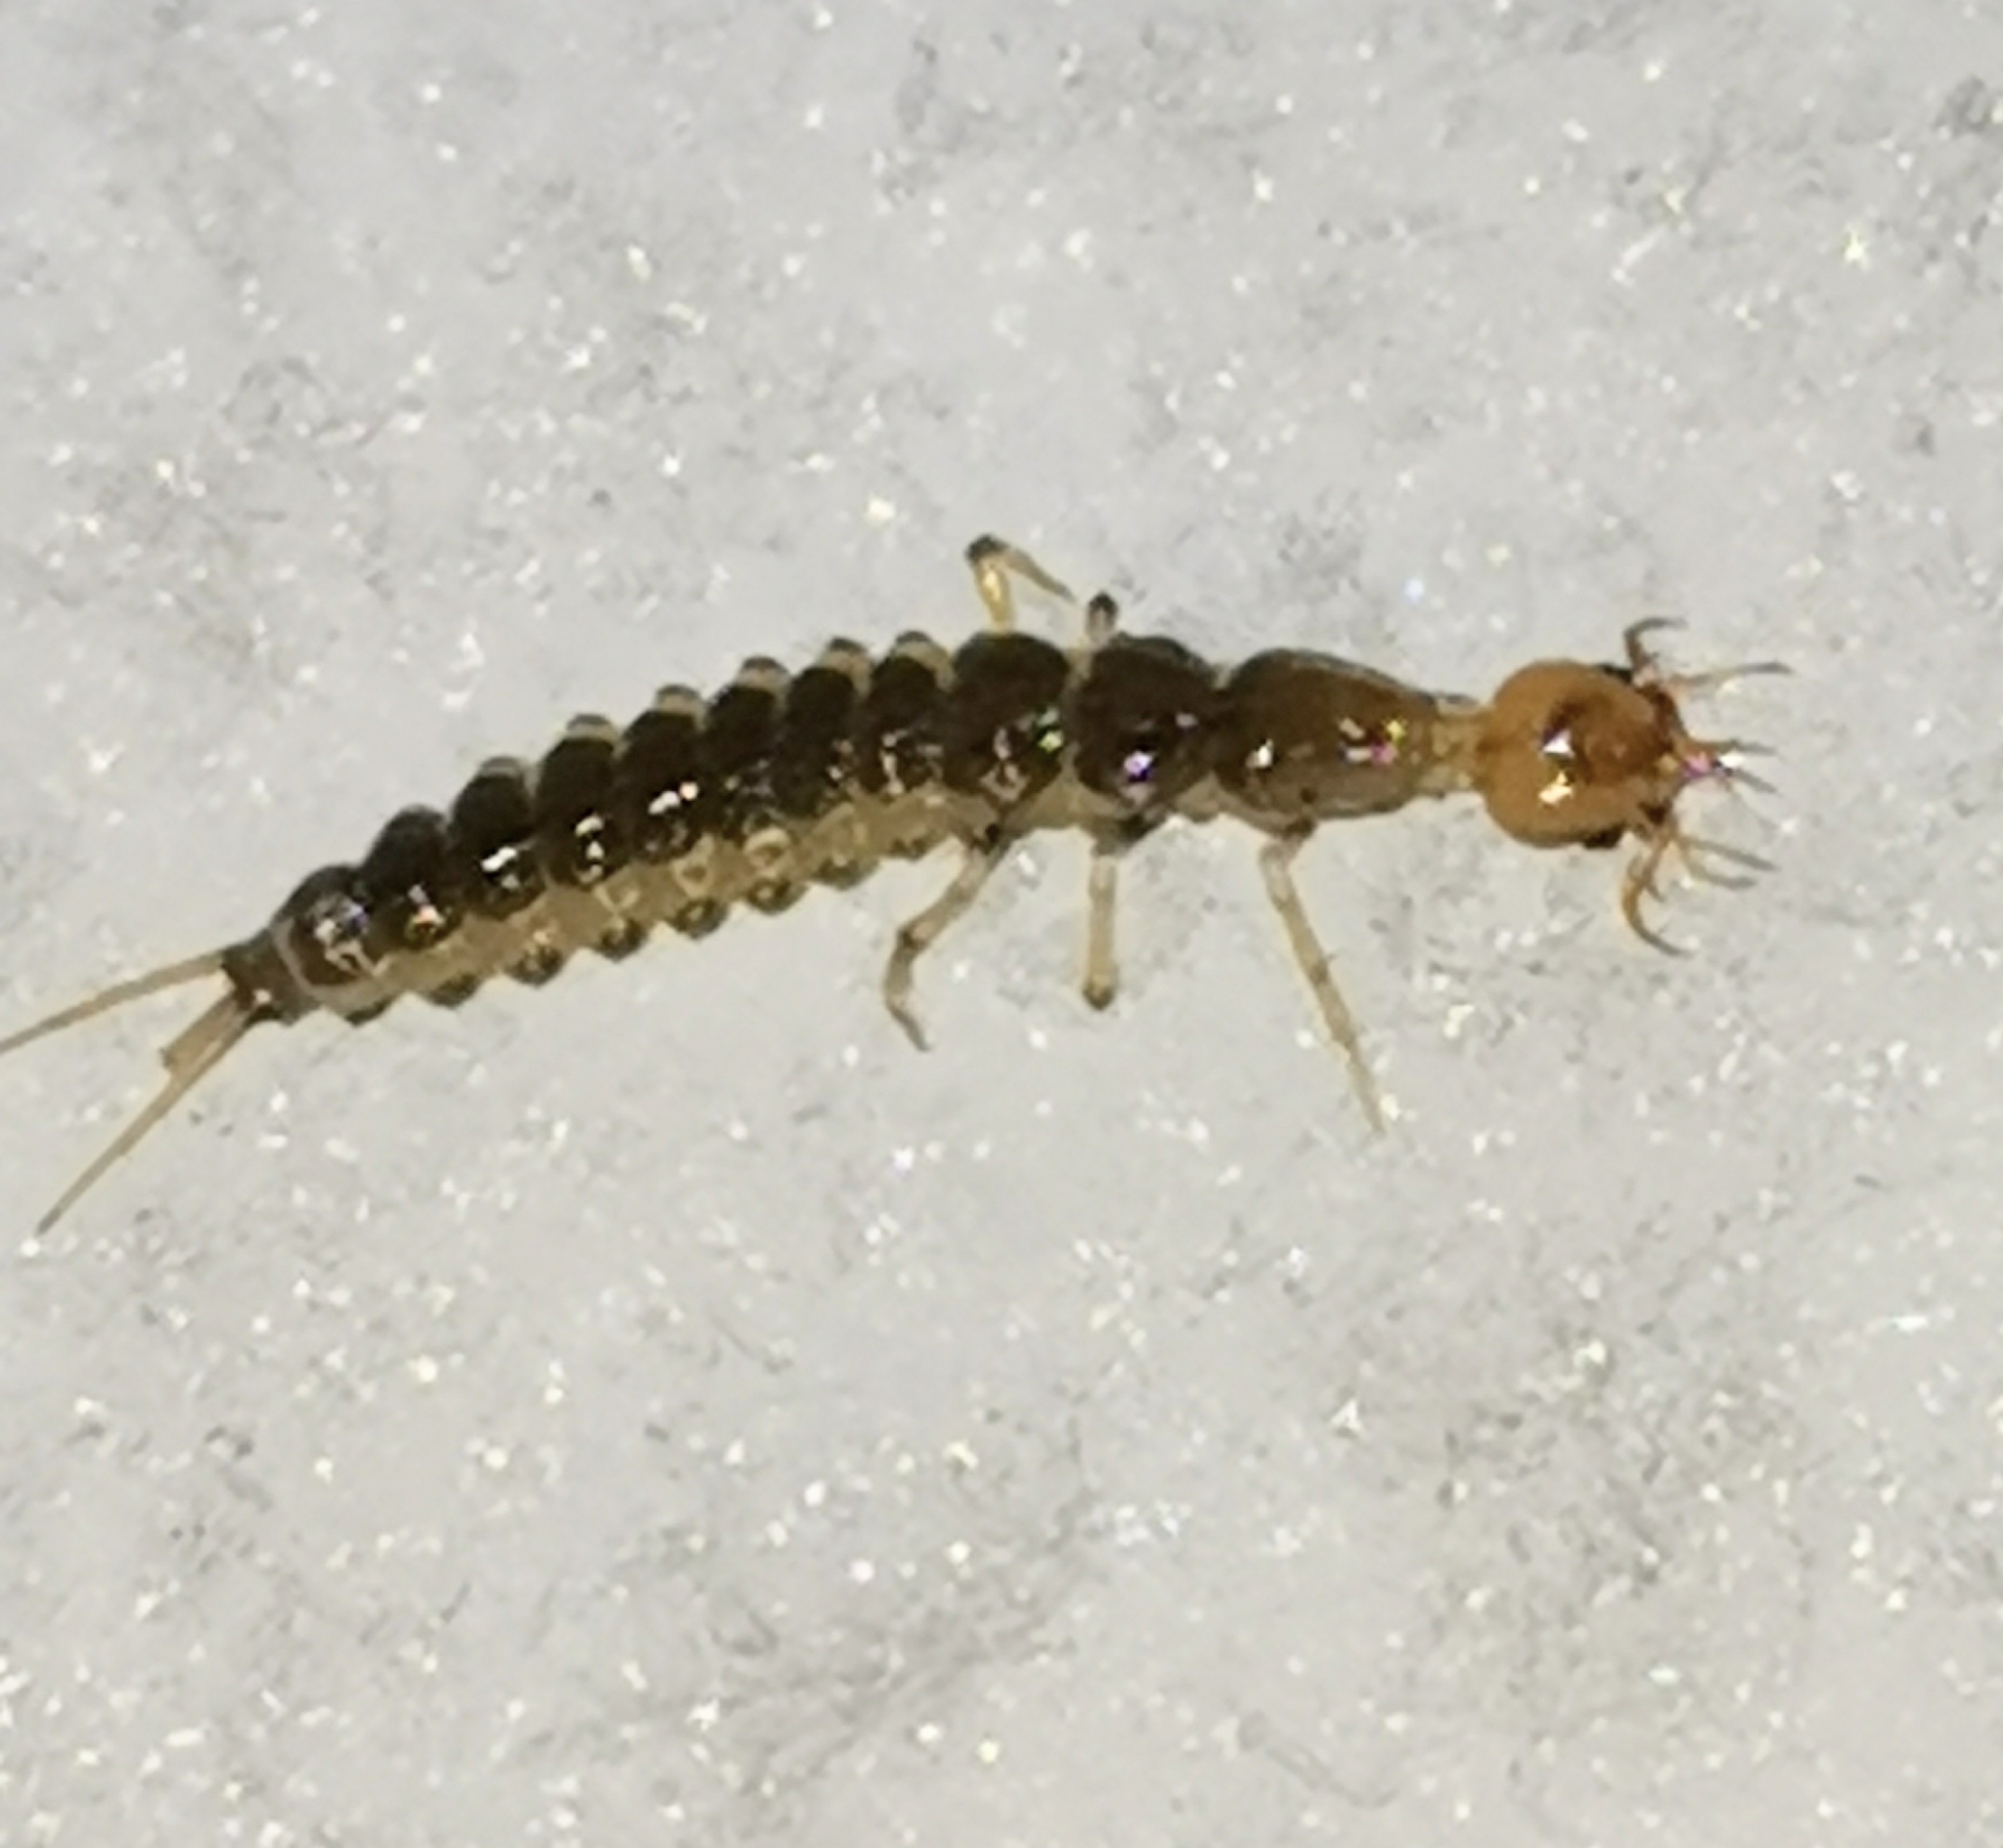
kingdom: Animalia
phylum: Arthropoda
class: Insecta
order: Coleoptera
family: Carabidae
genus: Leistus
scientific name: Leistus
